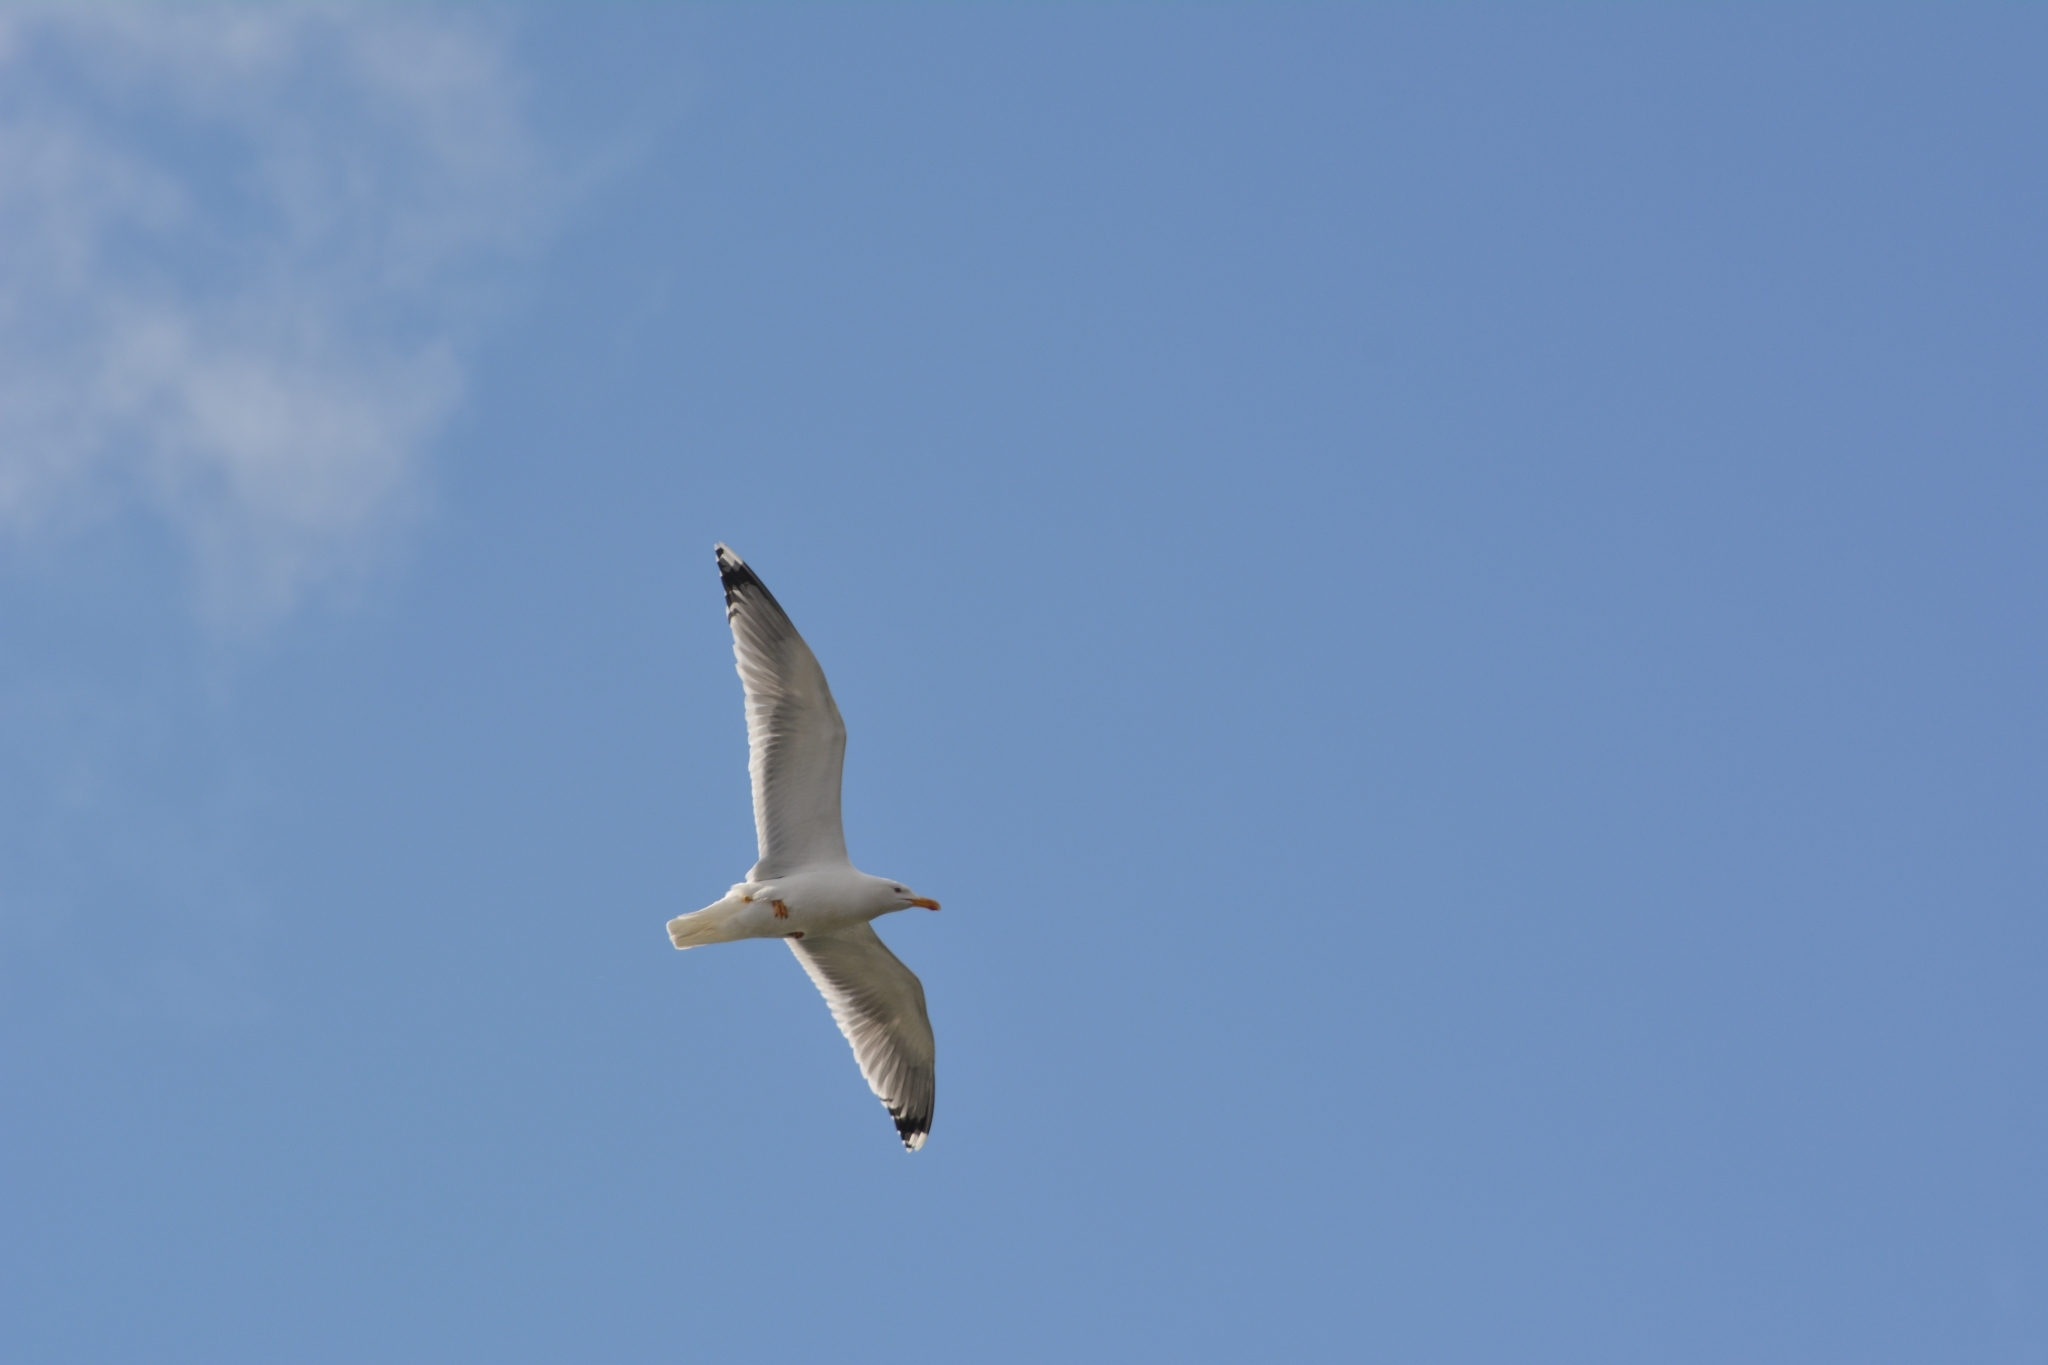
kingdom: Animalia
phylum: Chordata
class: Aves
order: Charadriiformes
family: Laridae
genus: Larus
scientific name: Larus argentatus
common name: Herring gull
